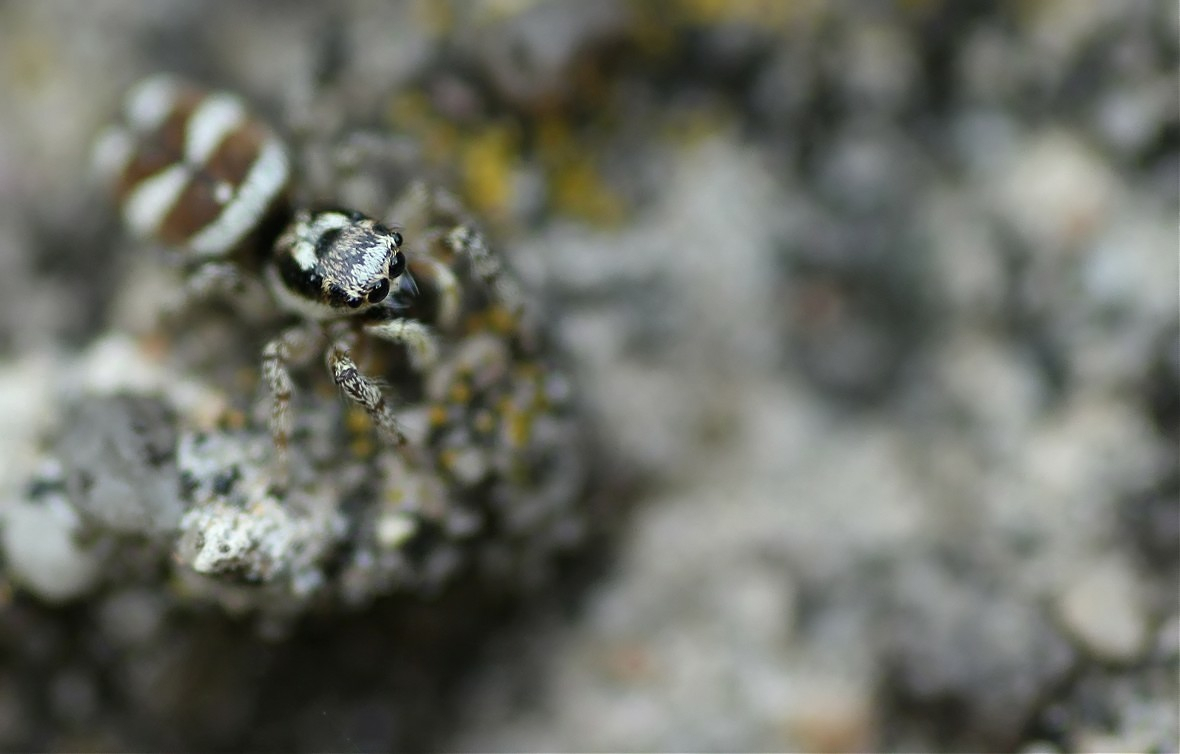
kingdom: Animalia
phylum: Arthropoda
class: Arachnida
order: Araneae
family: Salticidae
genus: Salticus
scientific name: Salticus scenicus
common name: Zebra jumper
